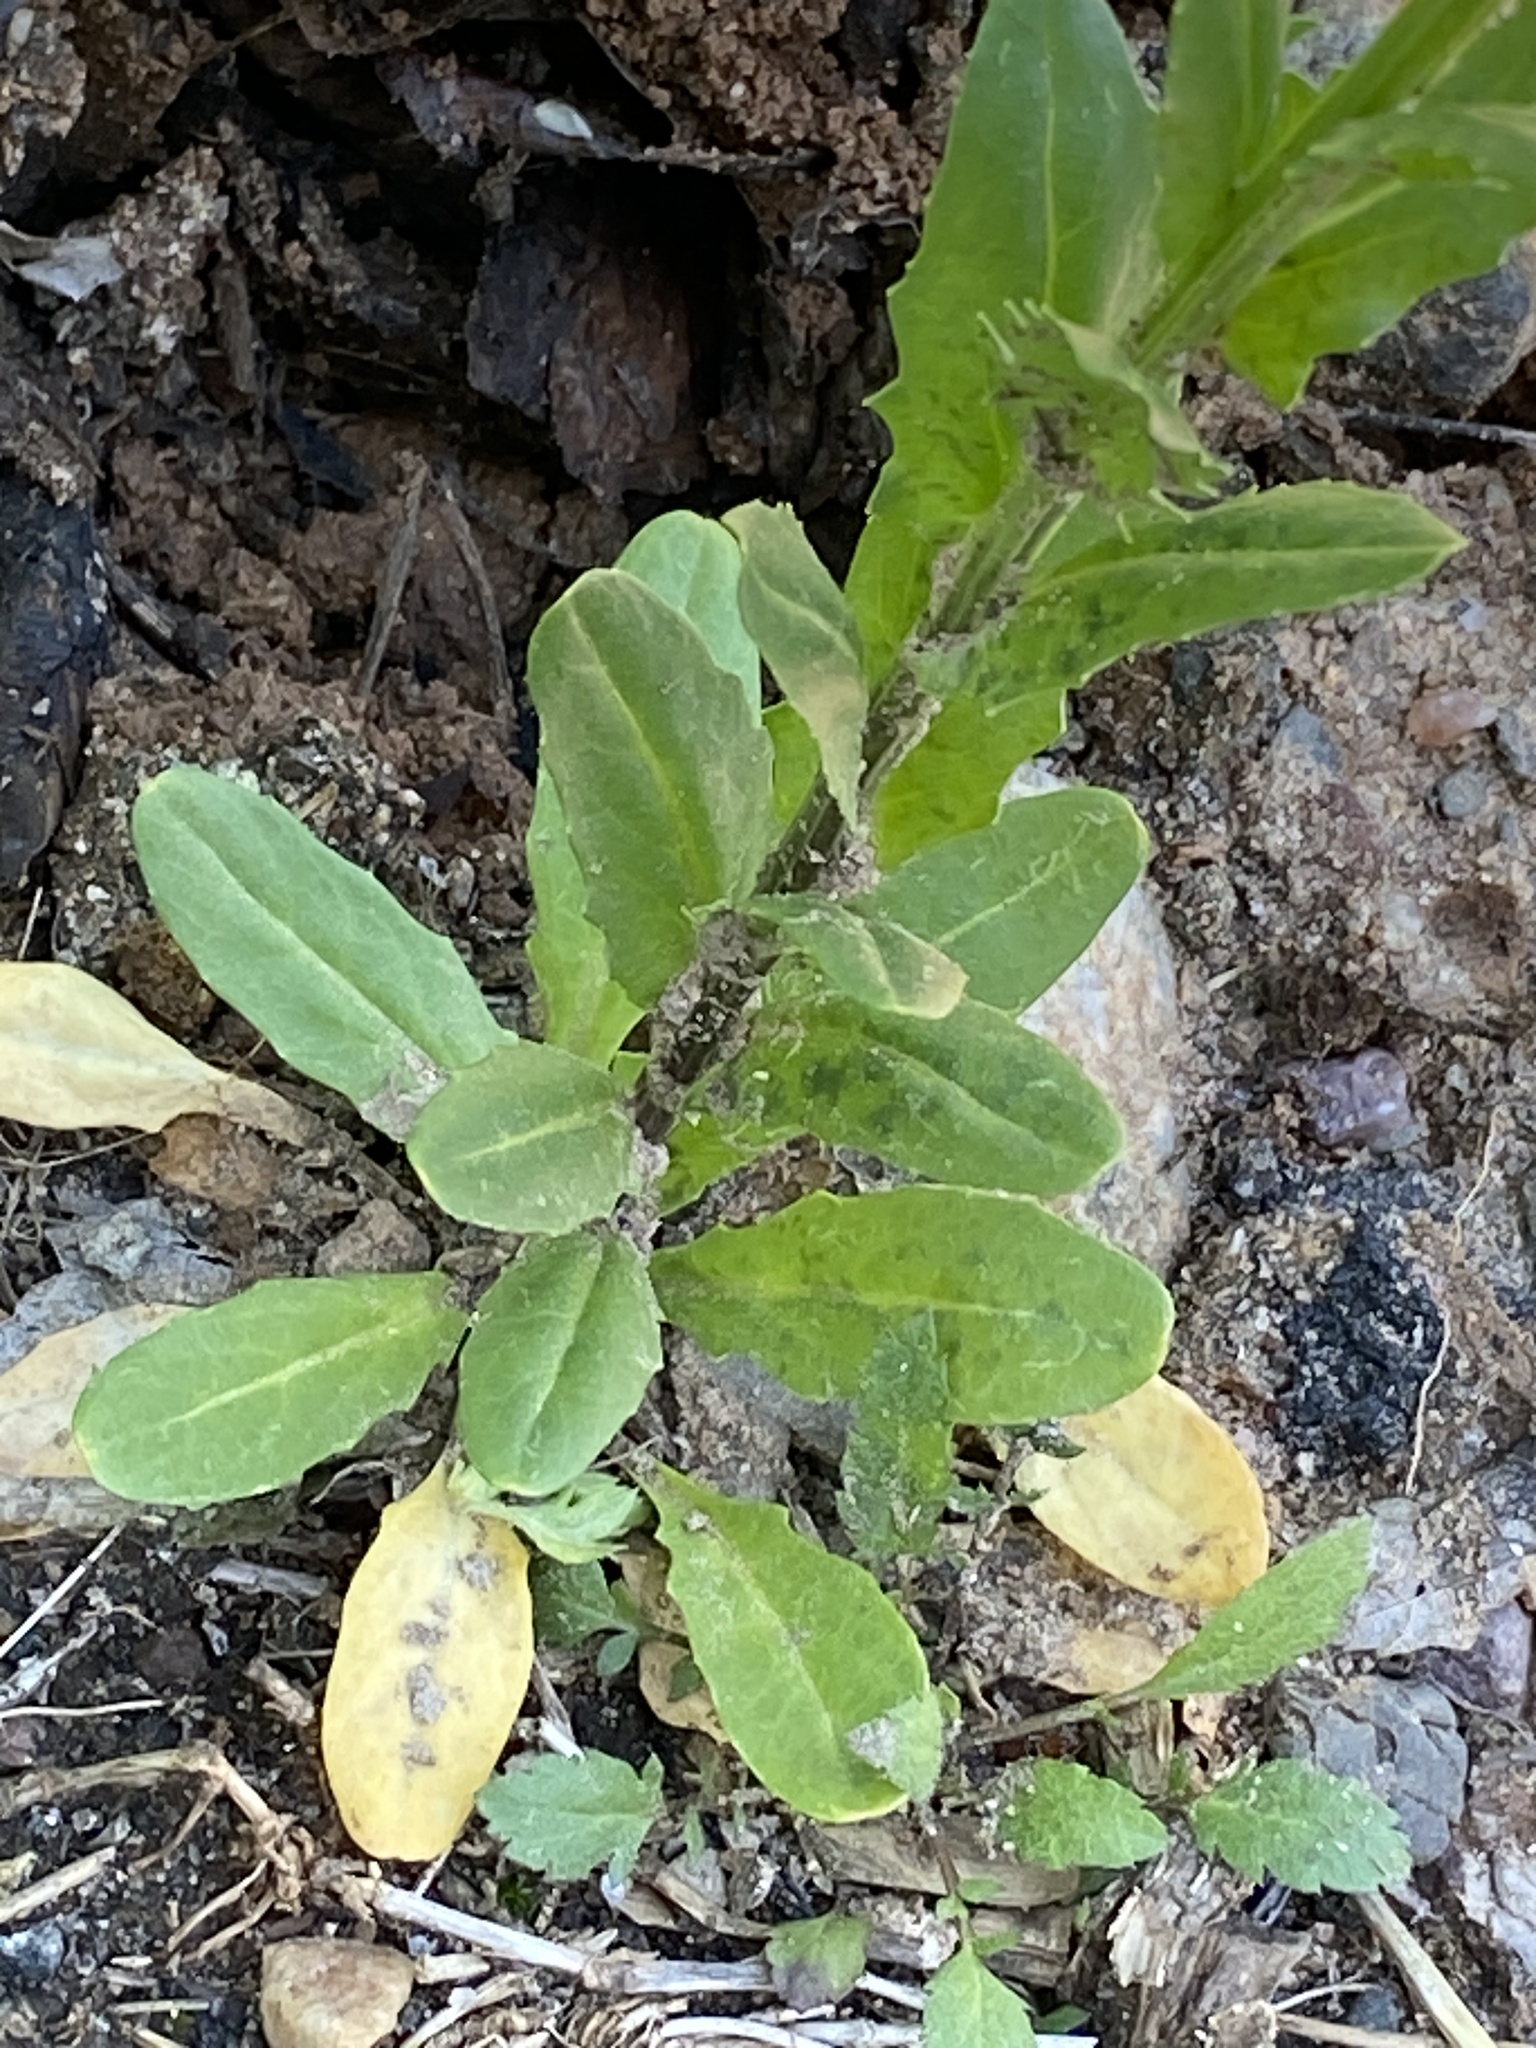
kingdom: Plantae
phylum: Tracheophyta
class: Magnoliopsida
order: Brassicales
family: Brassicaceae
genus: Thlaspi
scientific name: Thlaspi arvense
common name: Field pennycress
